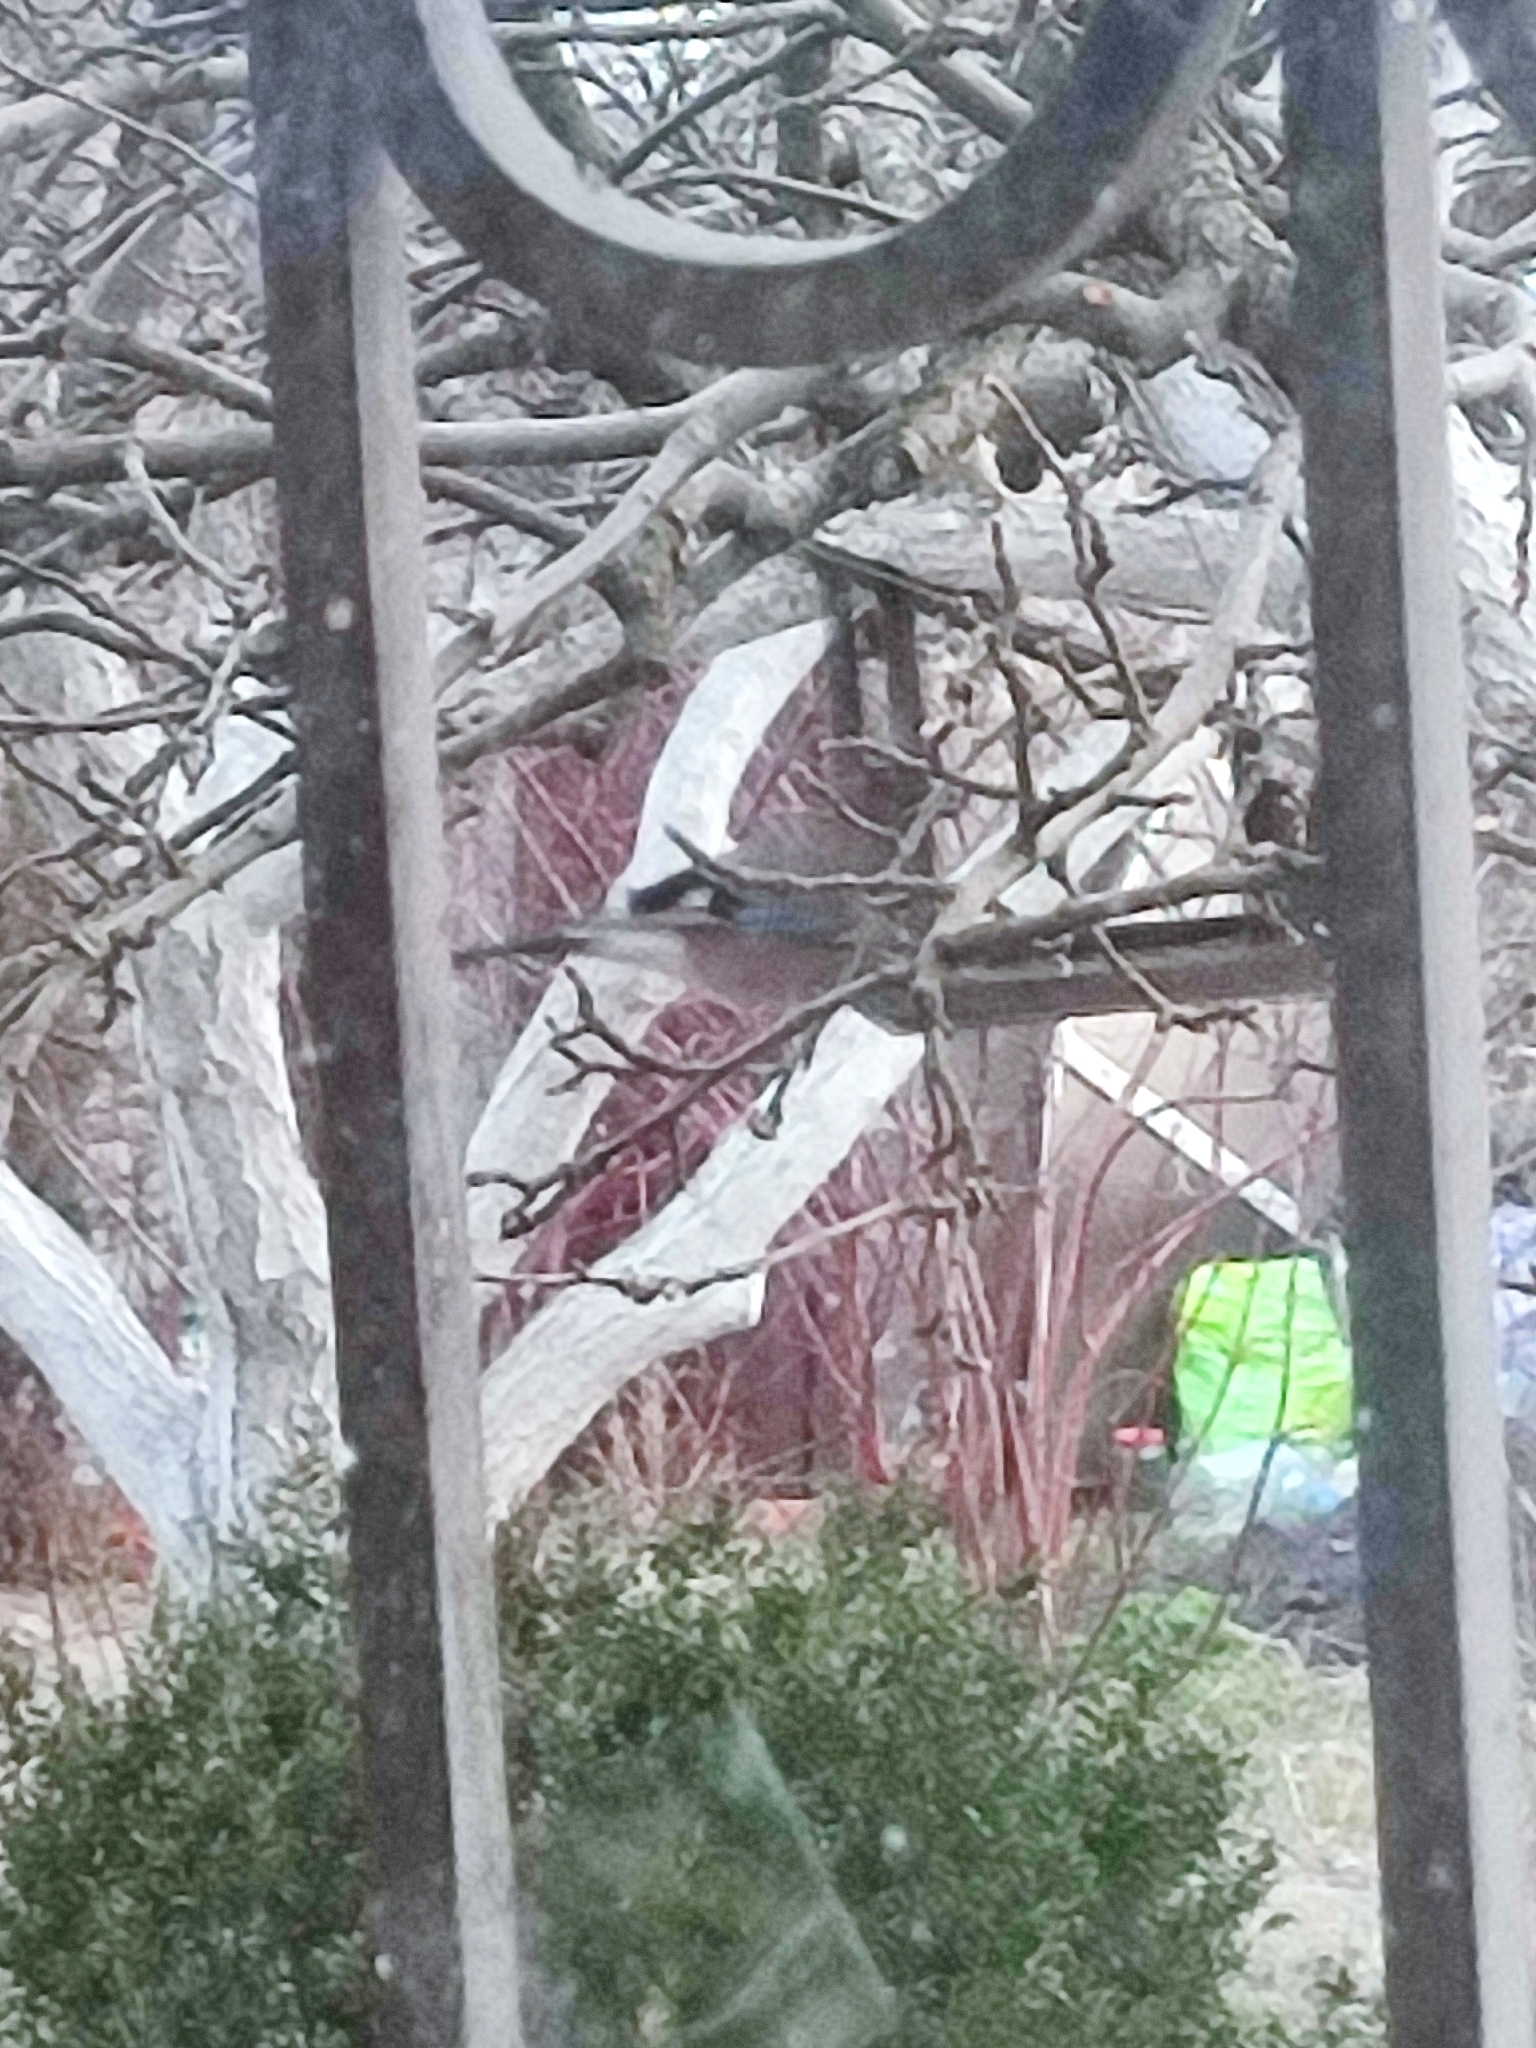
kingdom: Animalia
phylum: Chordata
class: Aves
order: Passeriformes
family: Corvidae
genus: Garrulus
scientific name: Garrulus glandarius
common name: Eurasian jay
